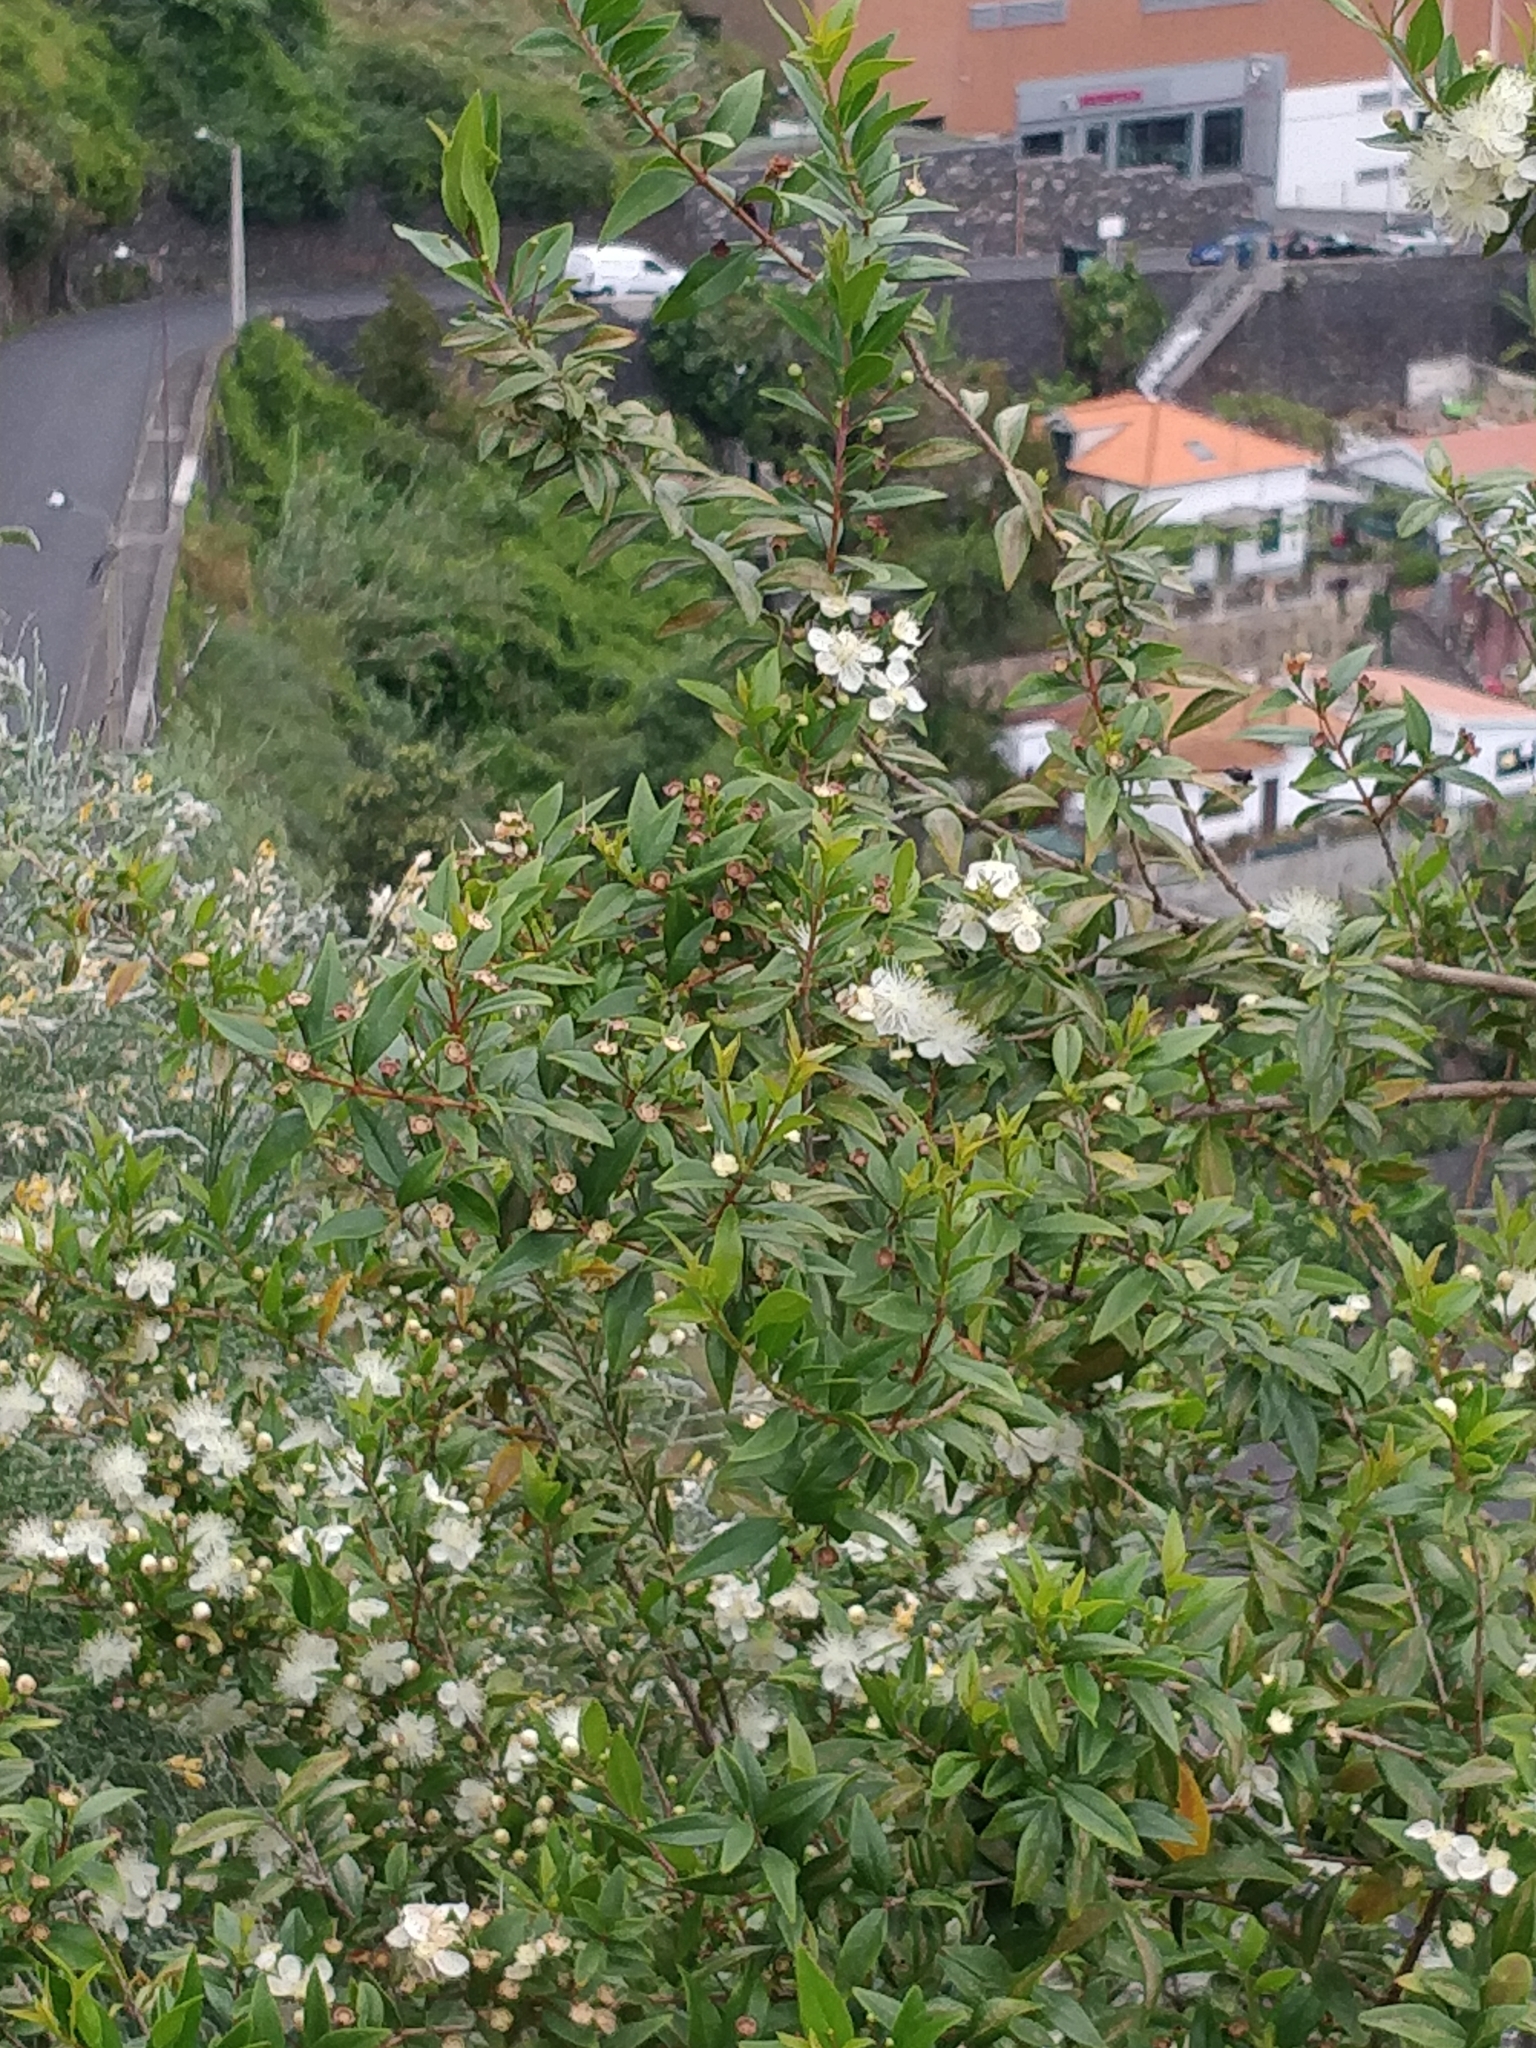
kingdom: Plantae
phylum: Tracheophyta
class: Magnoliopsida
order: Myrtales
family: Myrtaceae
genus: Myrtus
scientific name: Myrtus communis
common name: Myrtle
